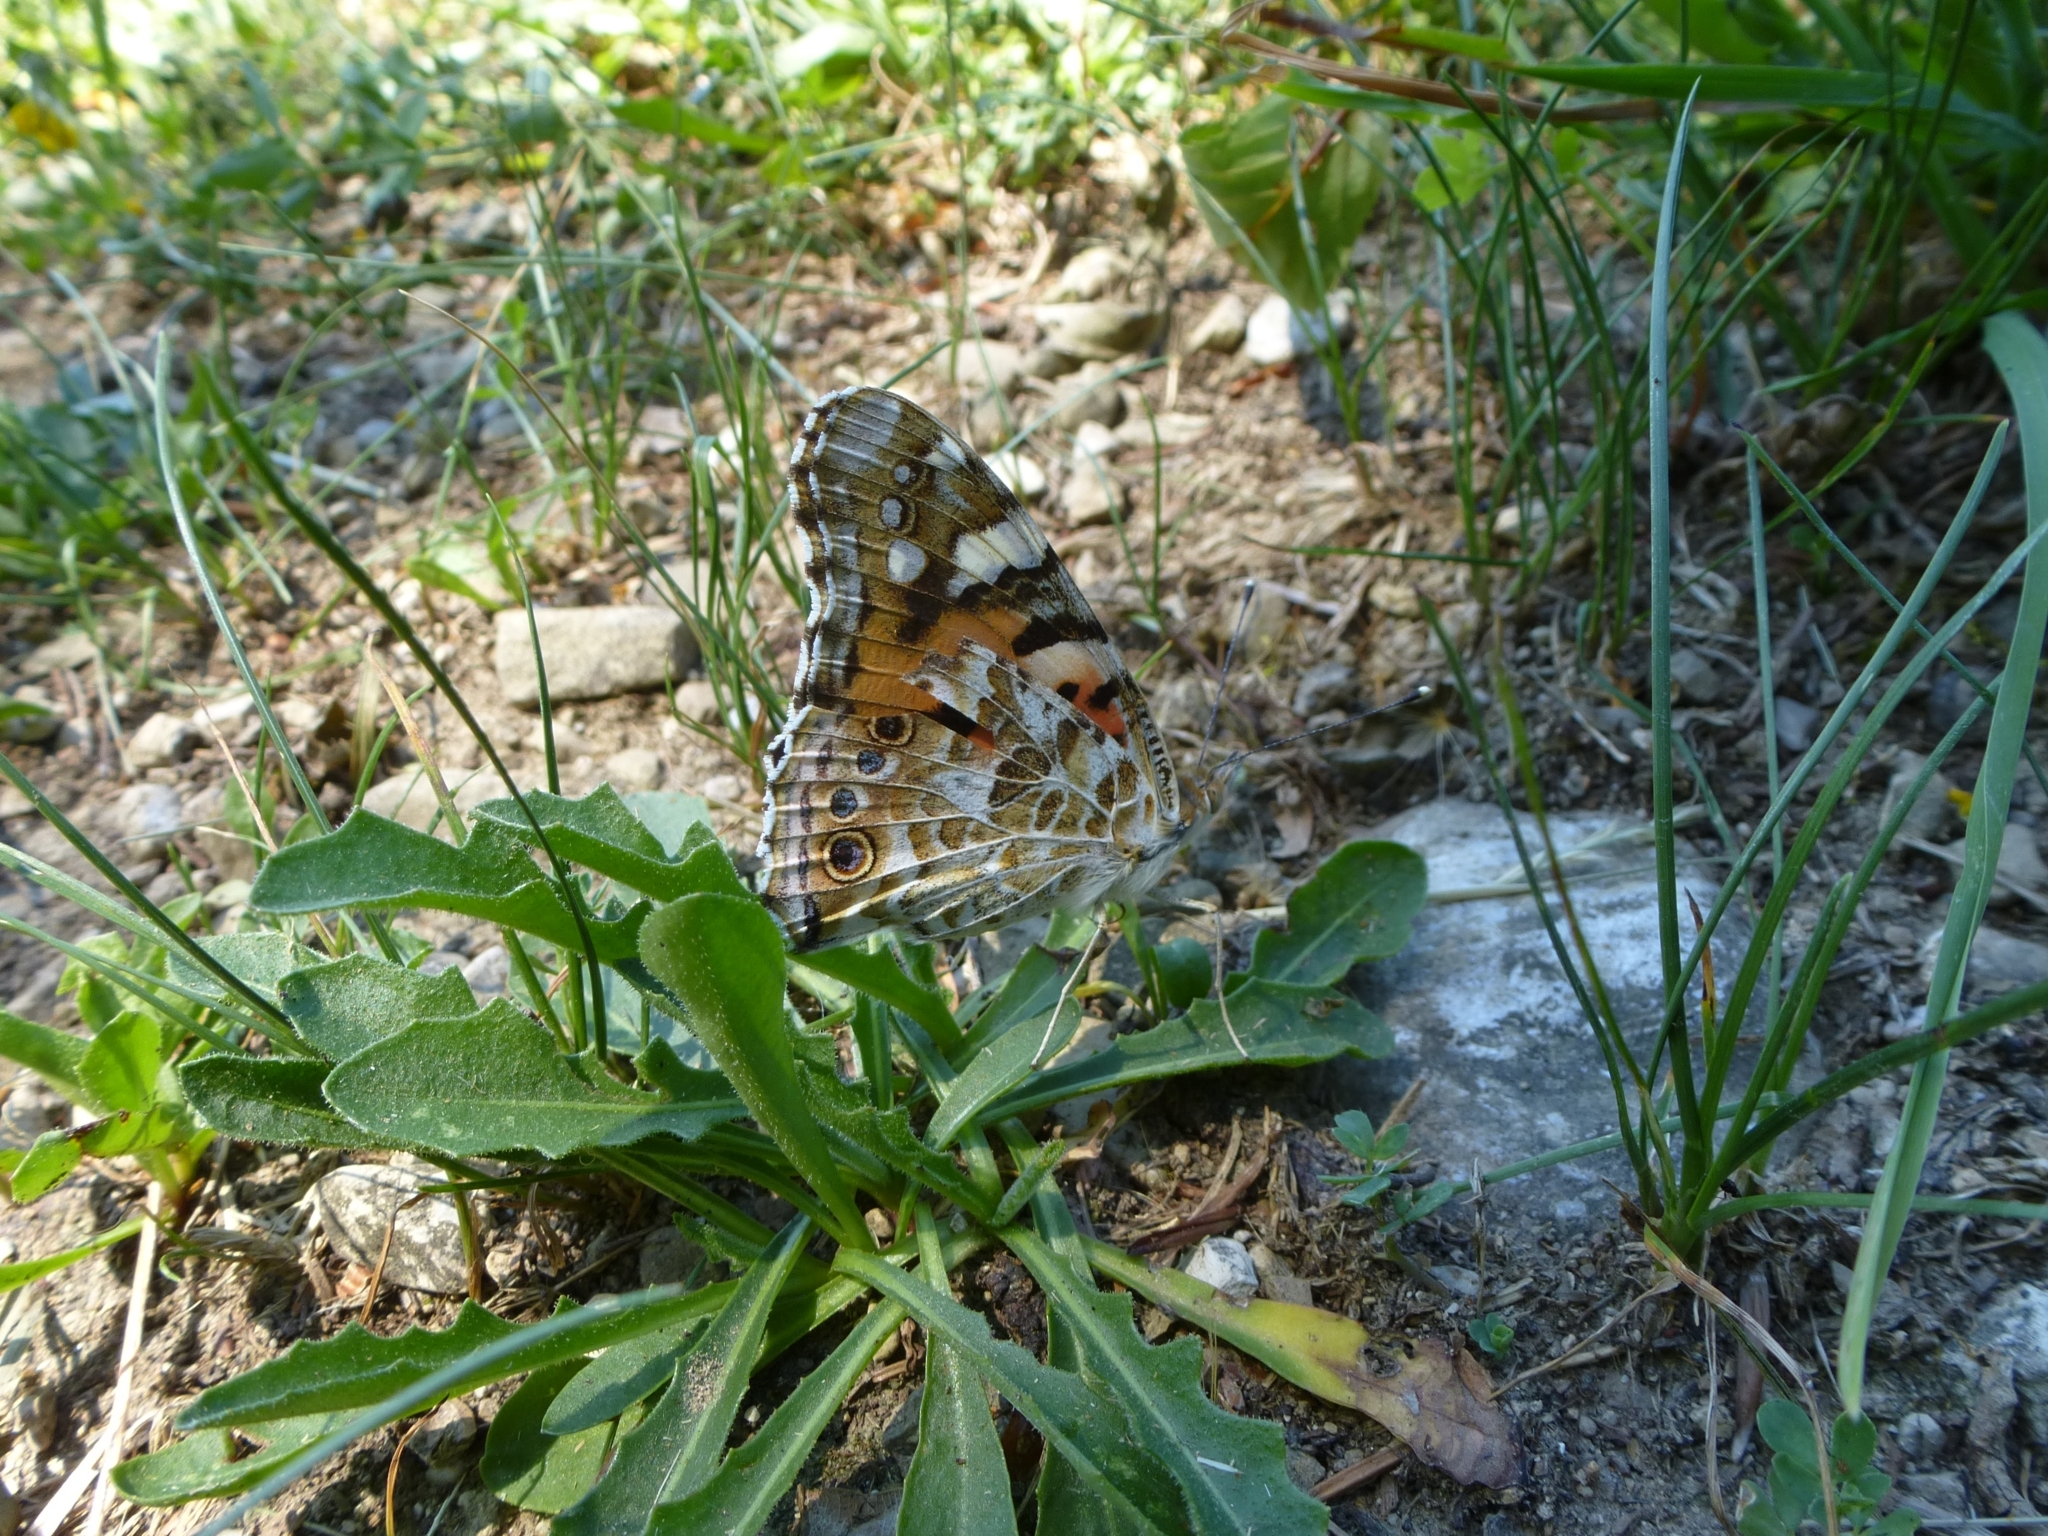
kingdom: Animalia
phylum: Arthropoda
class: Insecta
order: Lepidoptera
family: Nymphalidae
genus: Vanessa
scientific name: Vanessa cardui
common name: Painted lady
